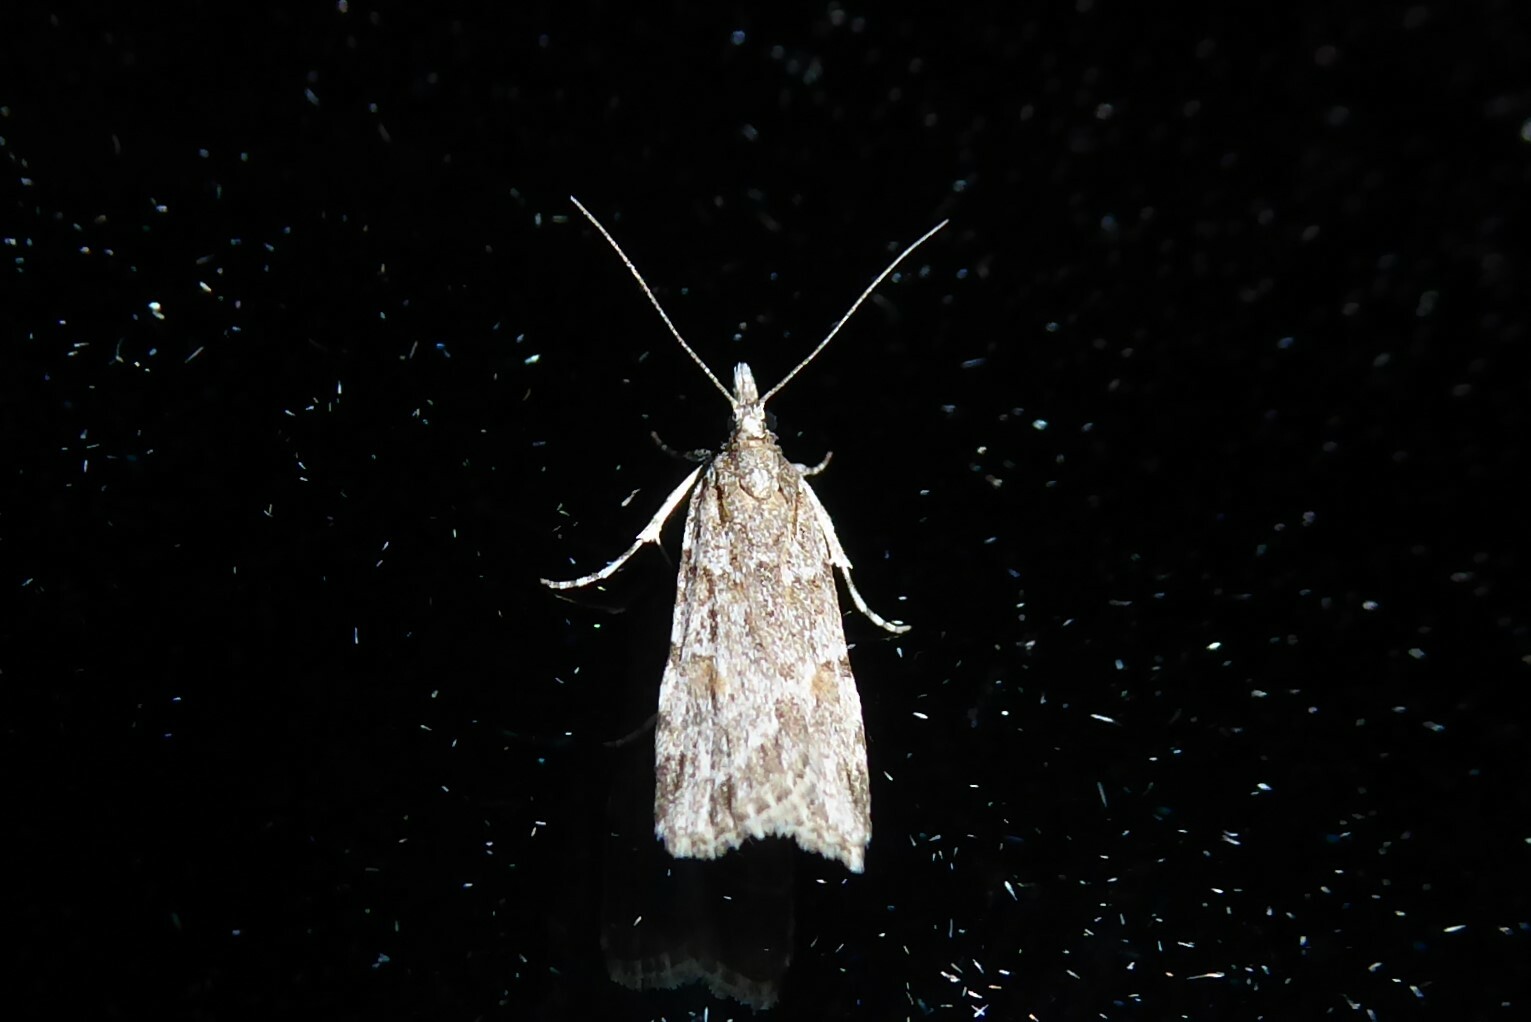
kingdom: Animalia
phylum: Arthropoda
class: Insecta
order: Lepidoptera
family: Crambidae
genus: Scoparia
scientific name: Scoparia chalicodes
